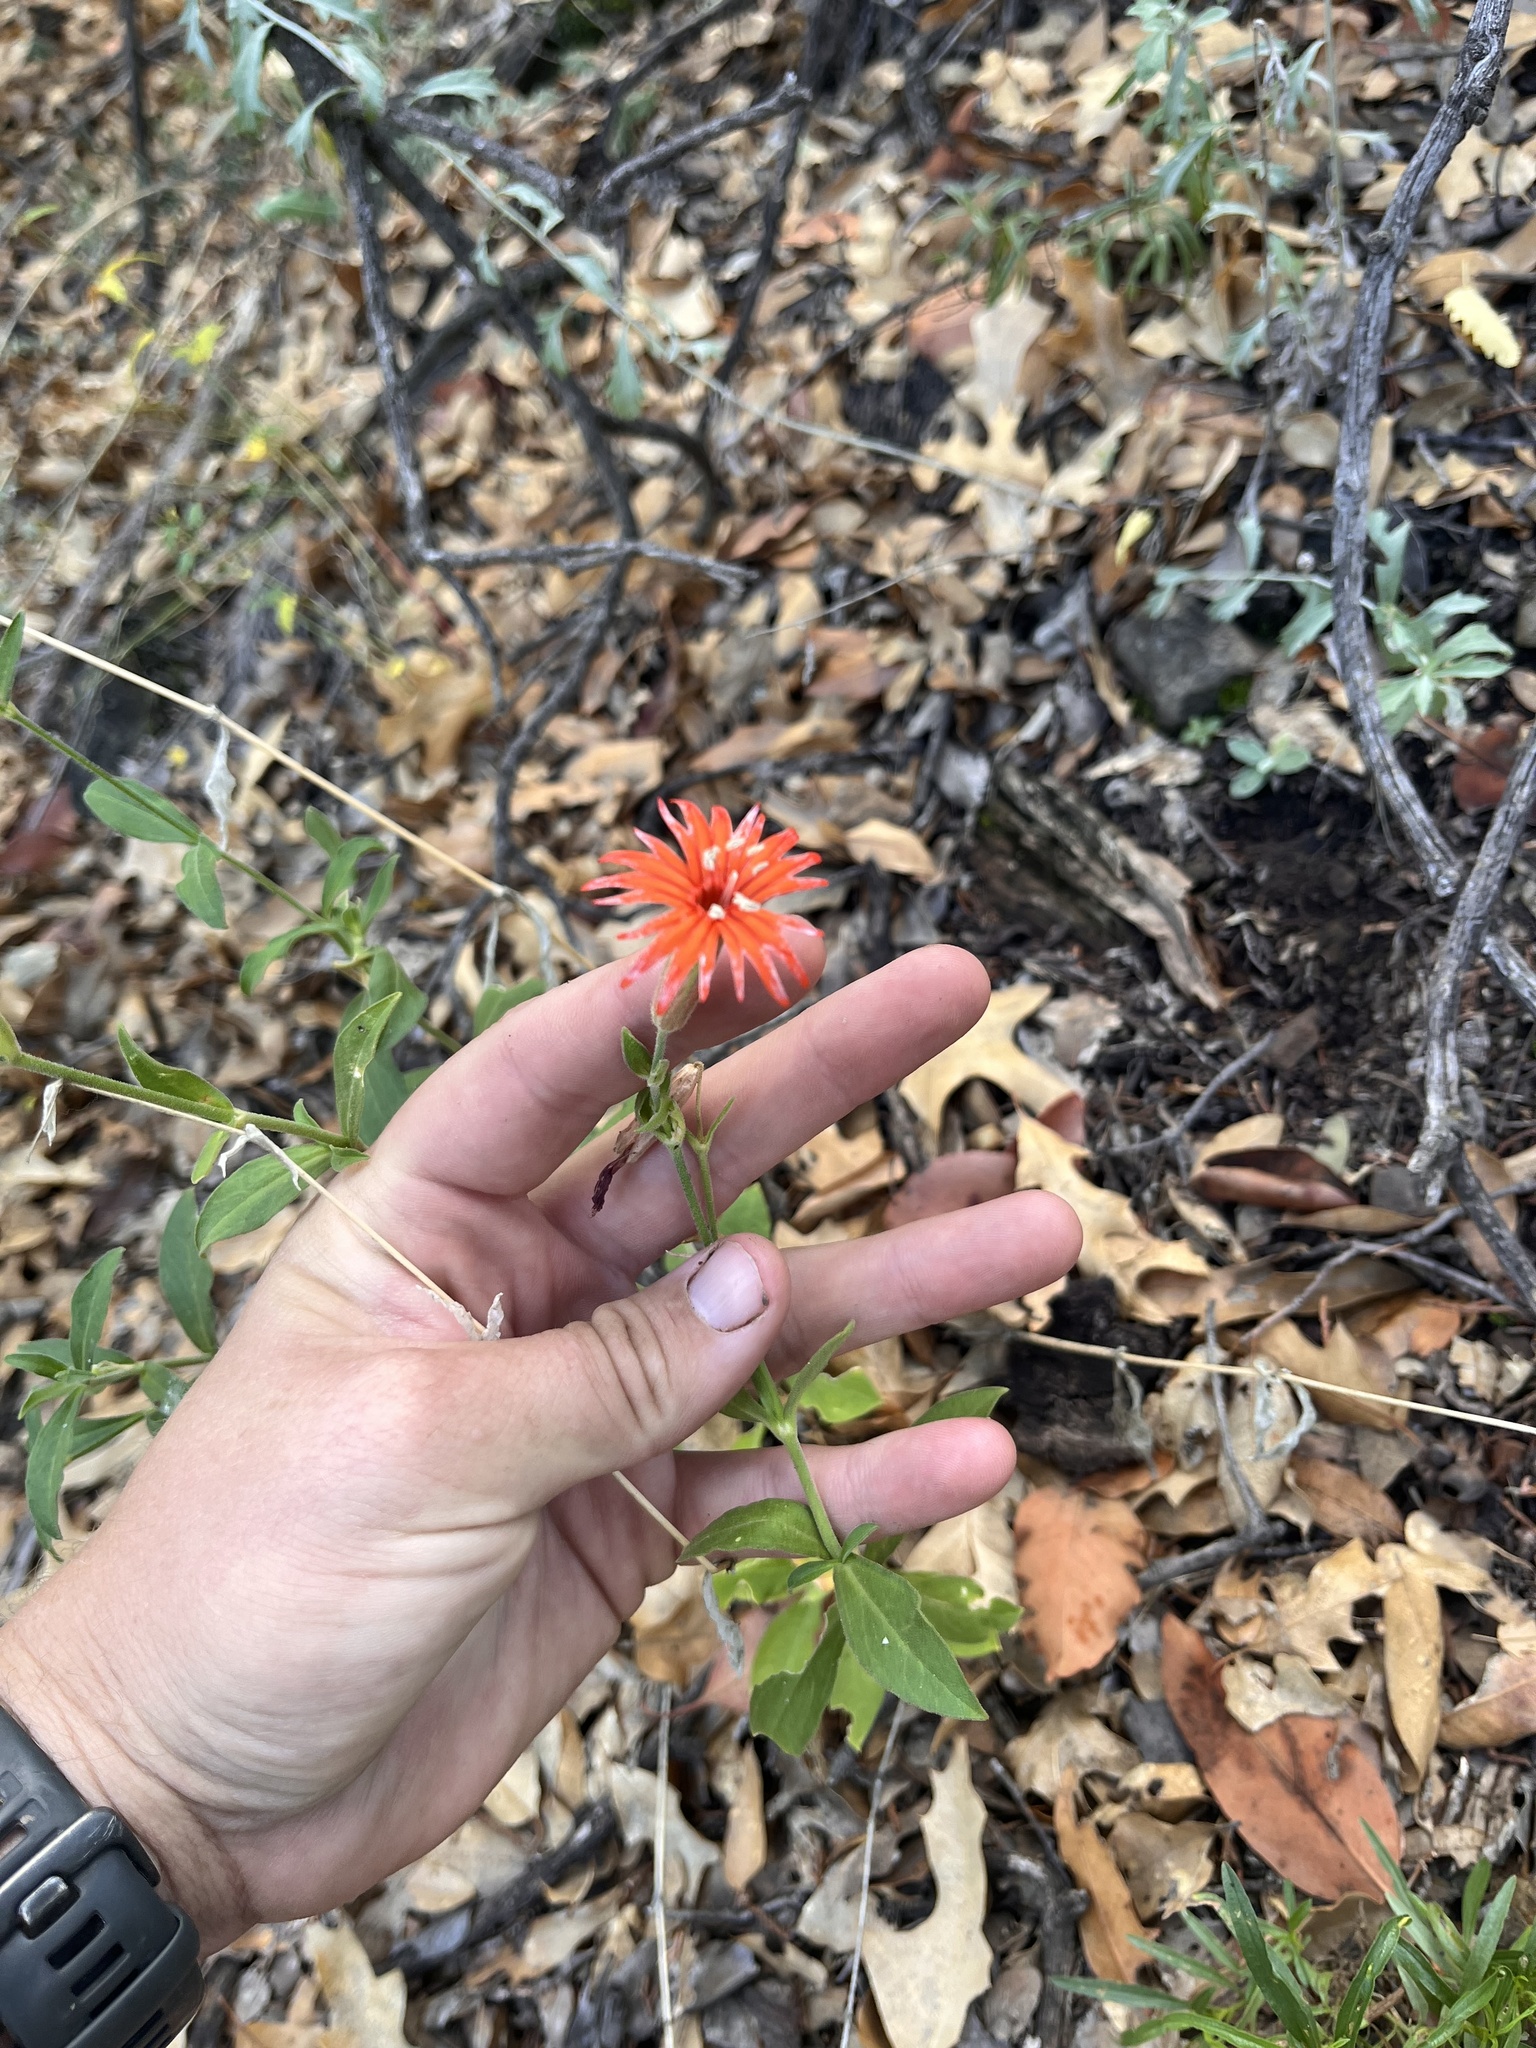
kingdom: Plantae
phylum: Tracheophyta
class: Magnoliopsida
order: Caryophyllales
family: Caryophyllaceae
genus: Silene
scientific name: Silene laciniata
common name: Indian-pink
